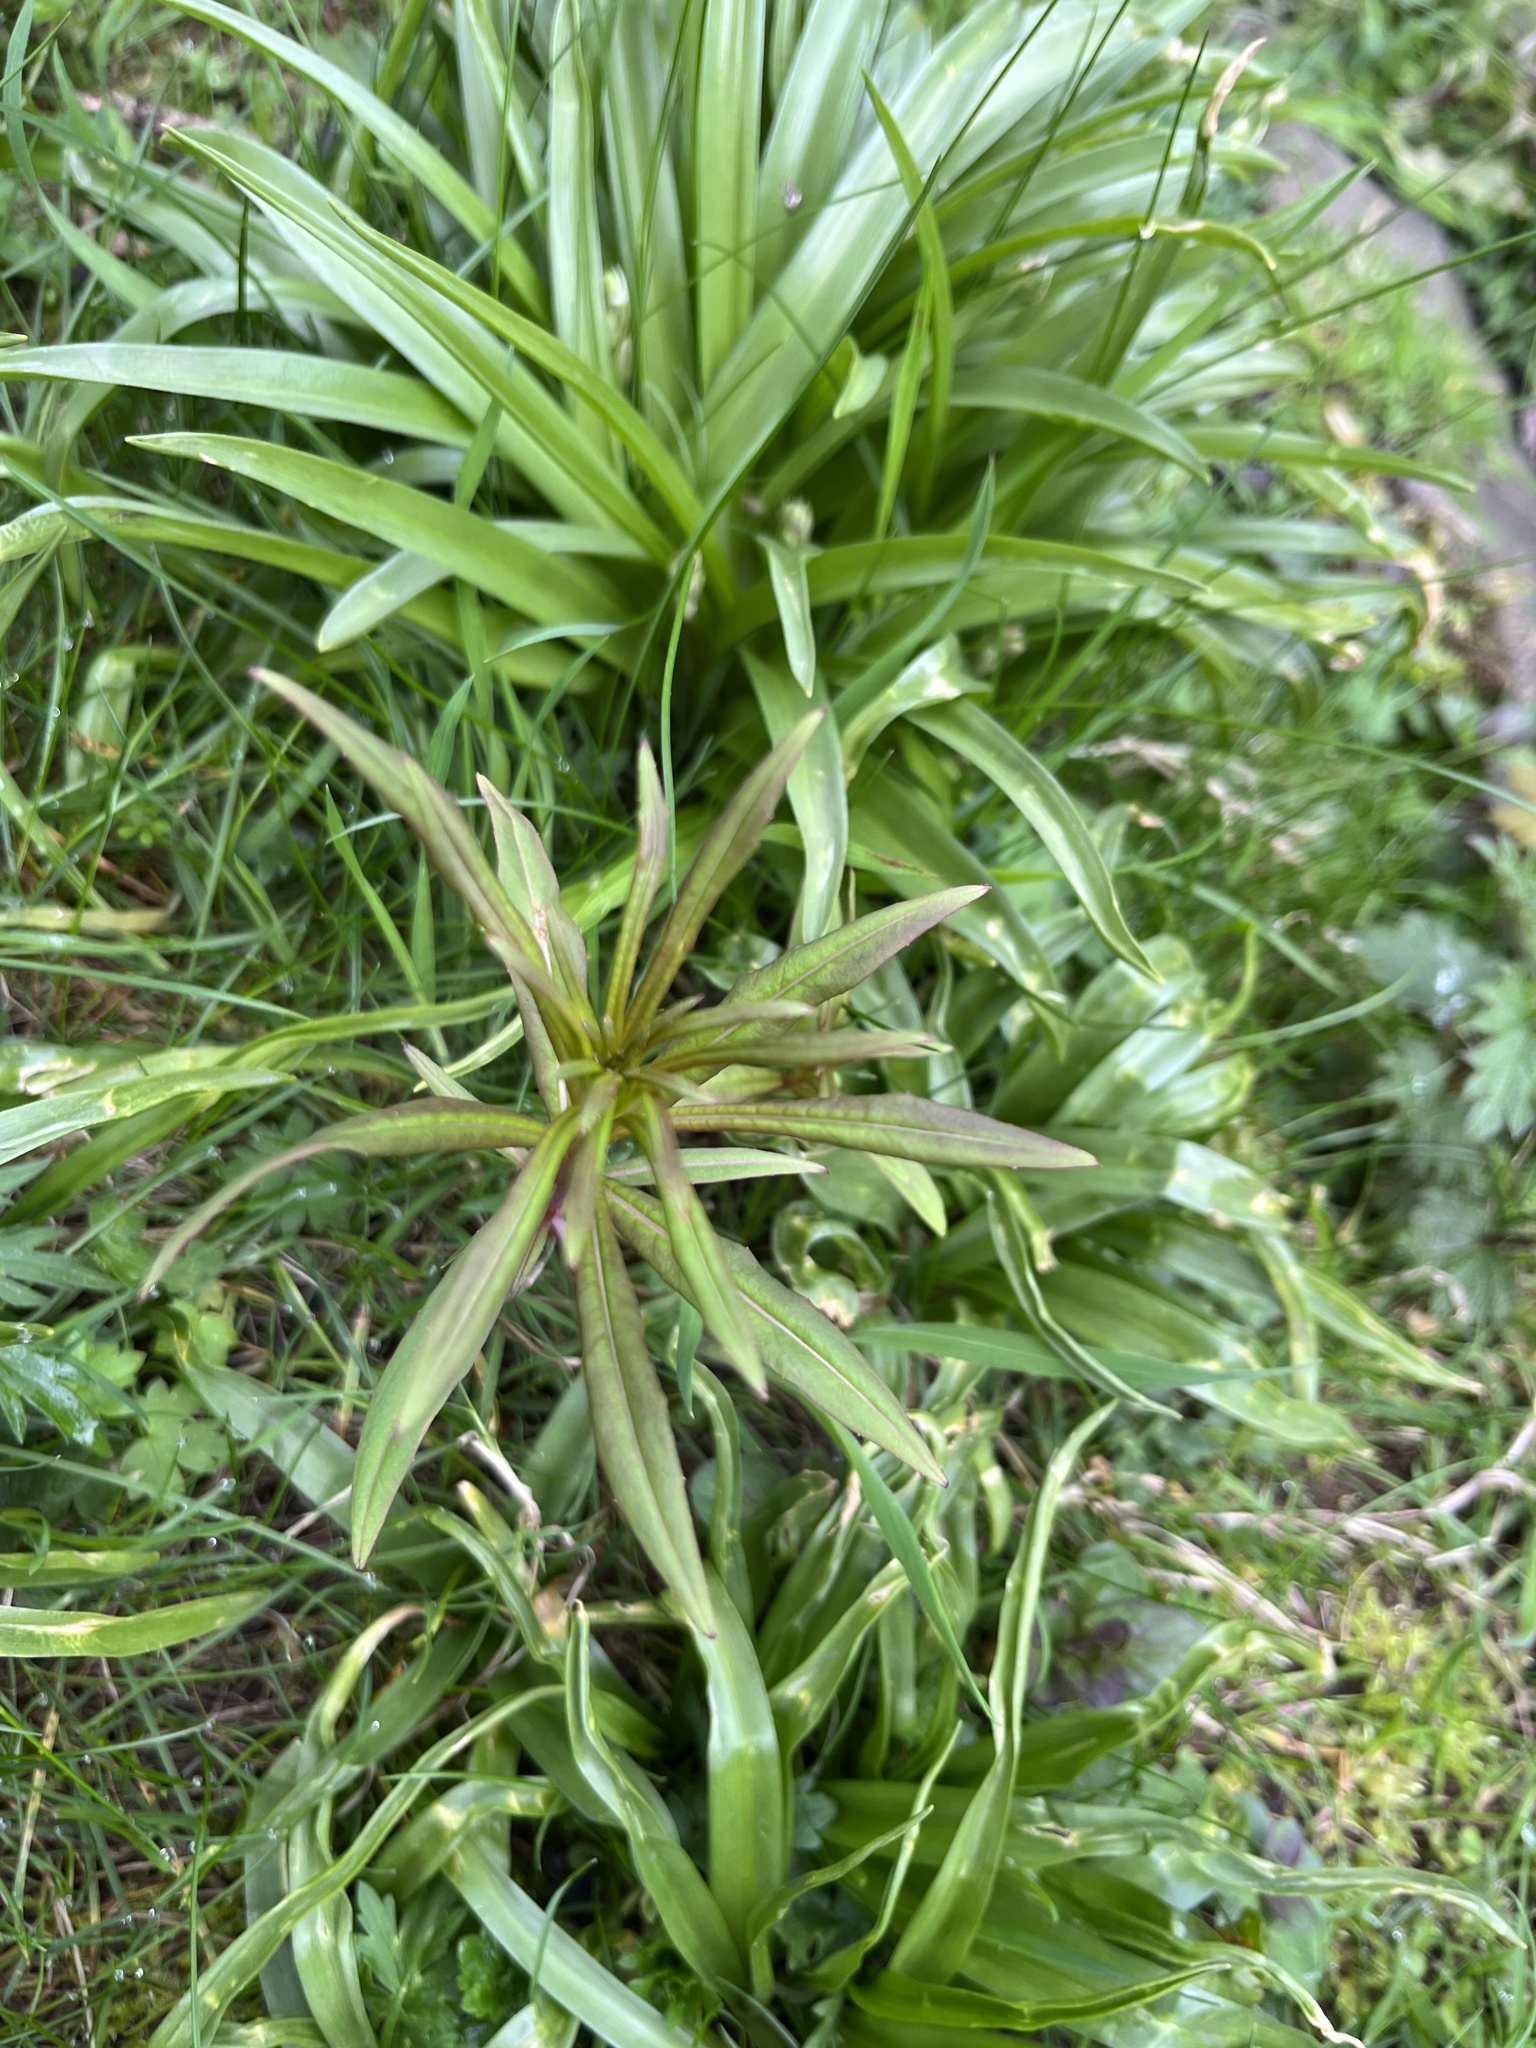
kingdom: Plantae
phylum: Tracheophyta
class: Magnoliopsida
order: Myrtales
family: Onagraceae
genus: Chamaenerion
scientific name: Chamaenerion angustifolium
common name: Fireweed
